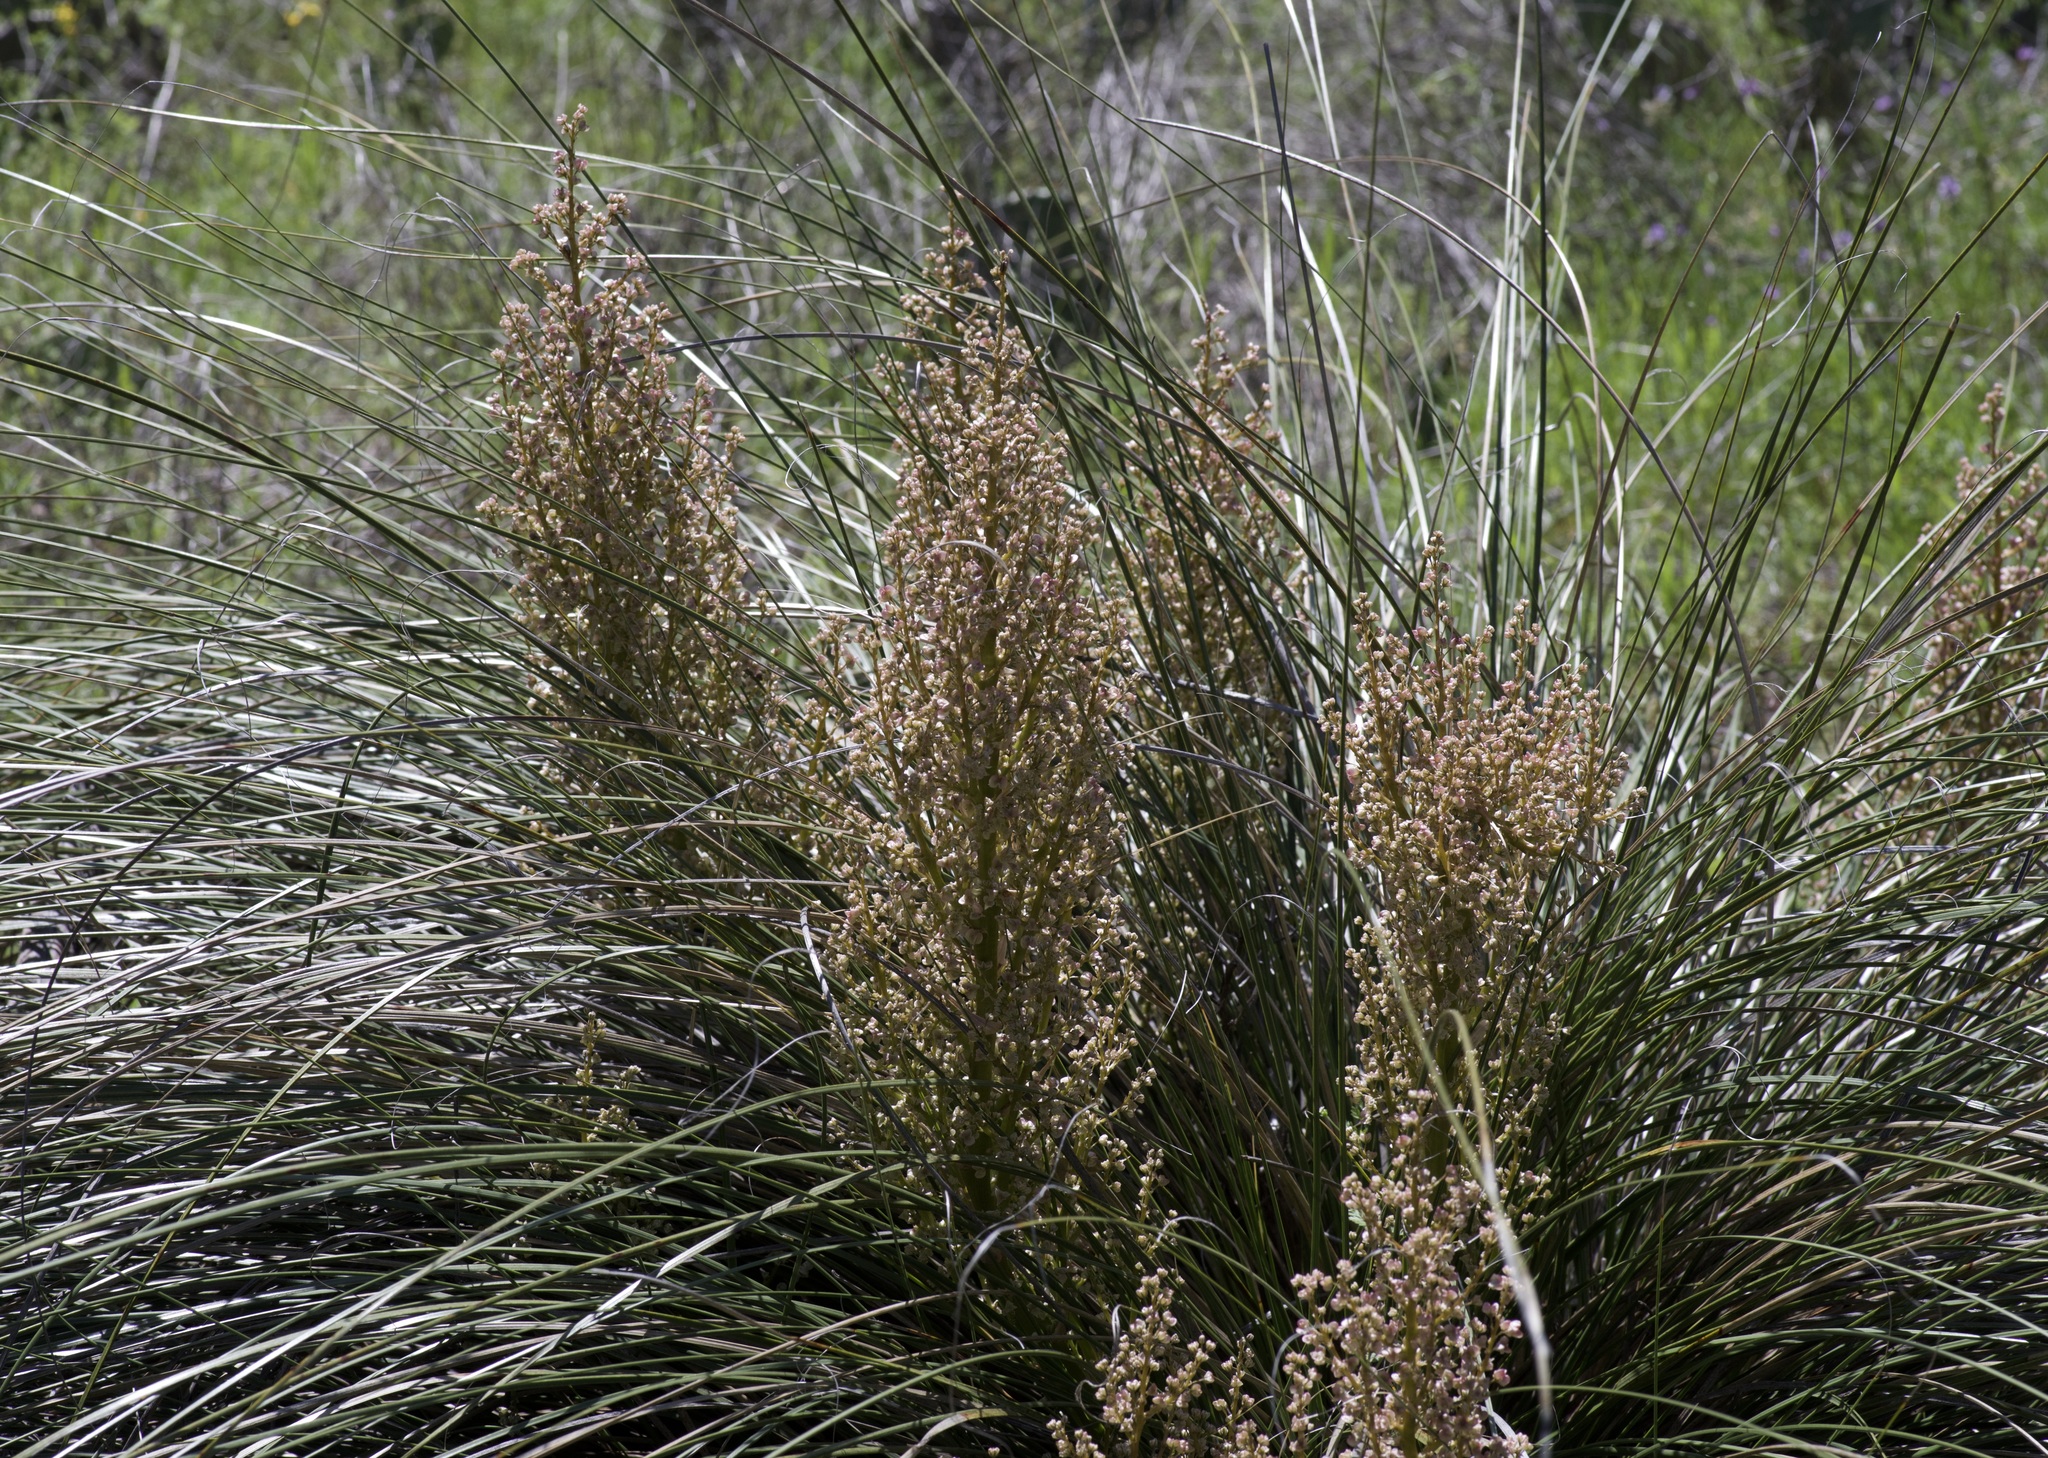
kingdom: Plantae
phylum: Tracheophyta
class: Liliopsida
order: Asparagales
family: Asparagaceae
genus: Nolina
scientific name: Nolina texana
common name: Texas sacahuiste
